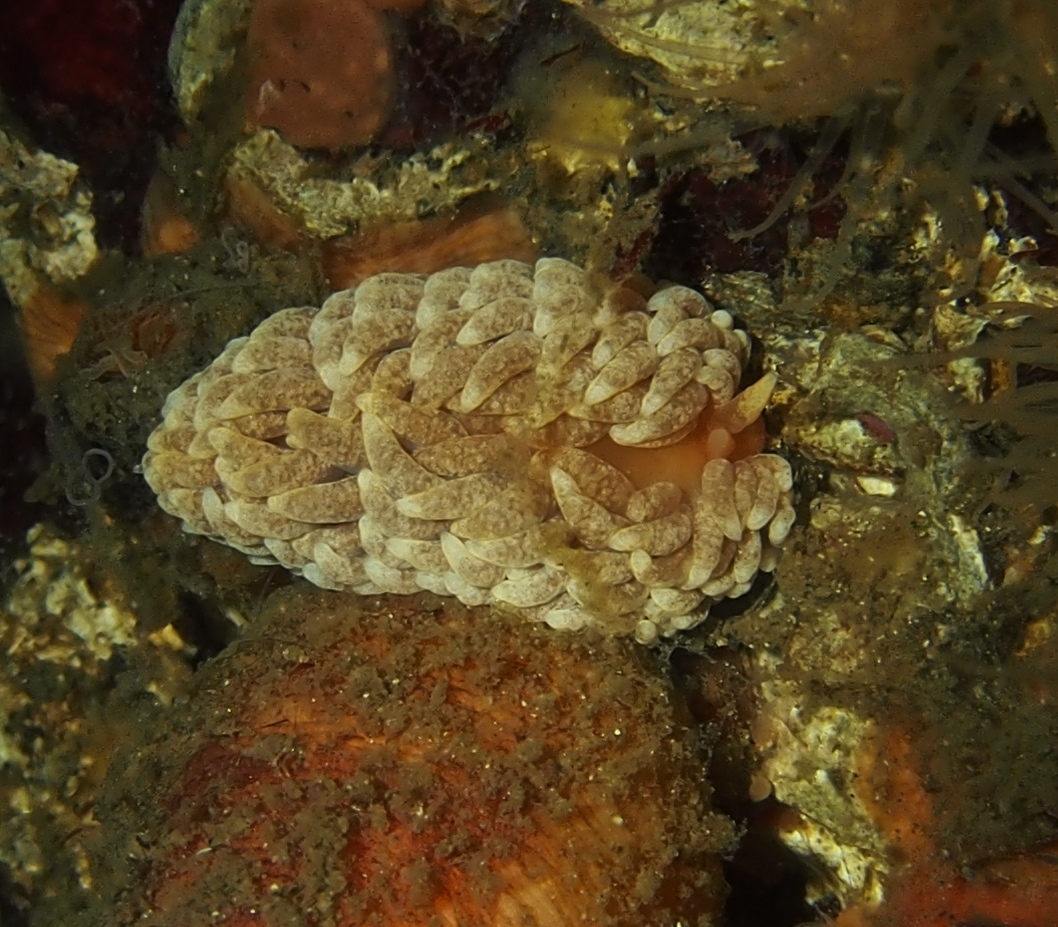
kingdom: Animalia
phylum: Mollusca
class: Gastropoda
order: Nudibranchia
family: Aeolidiidae
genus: Aeolidiella
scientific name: Aeolidiella glauca
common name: Orange-brown aeolid
